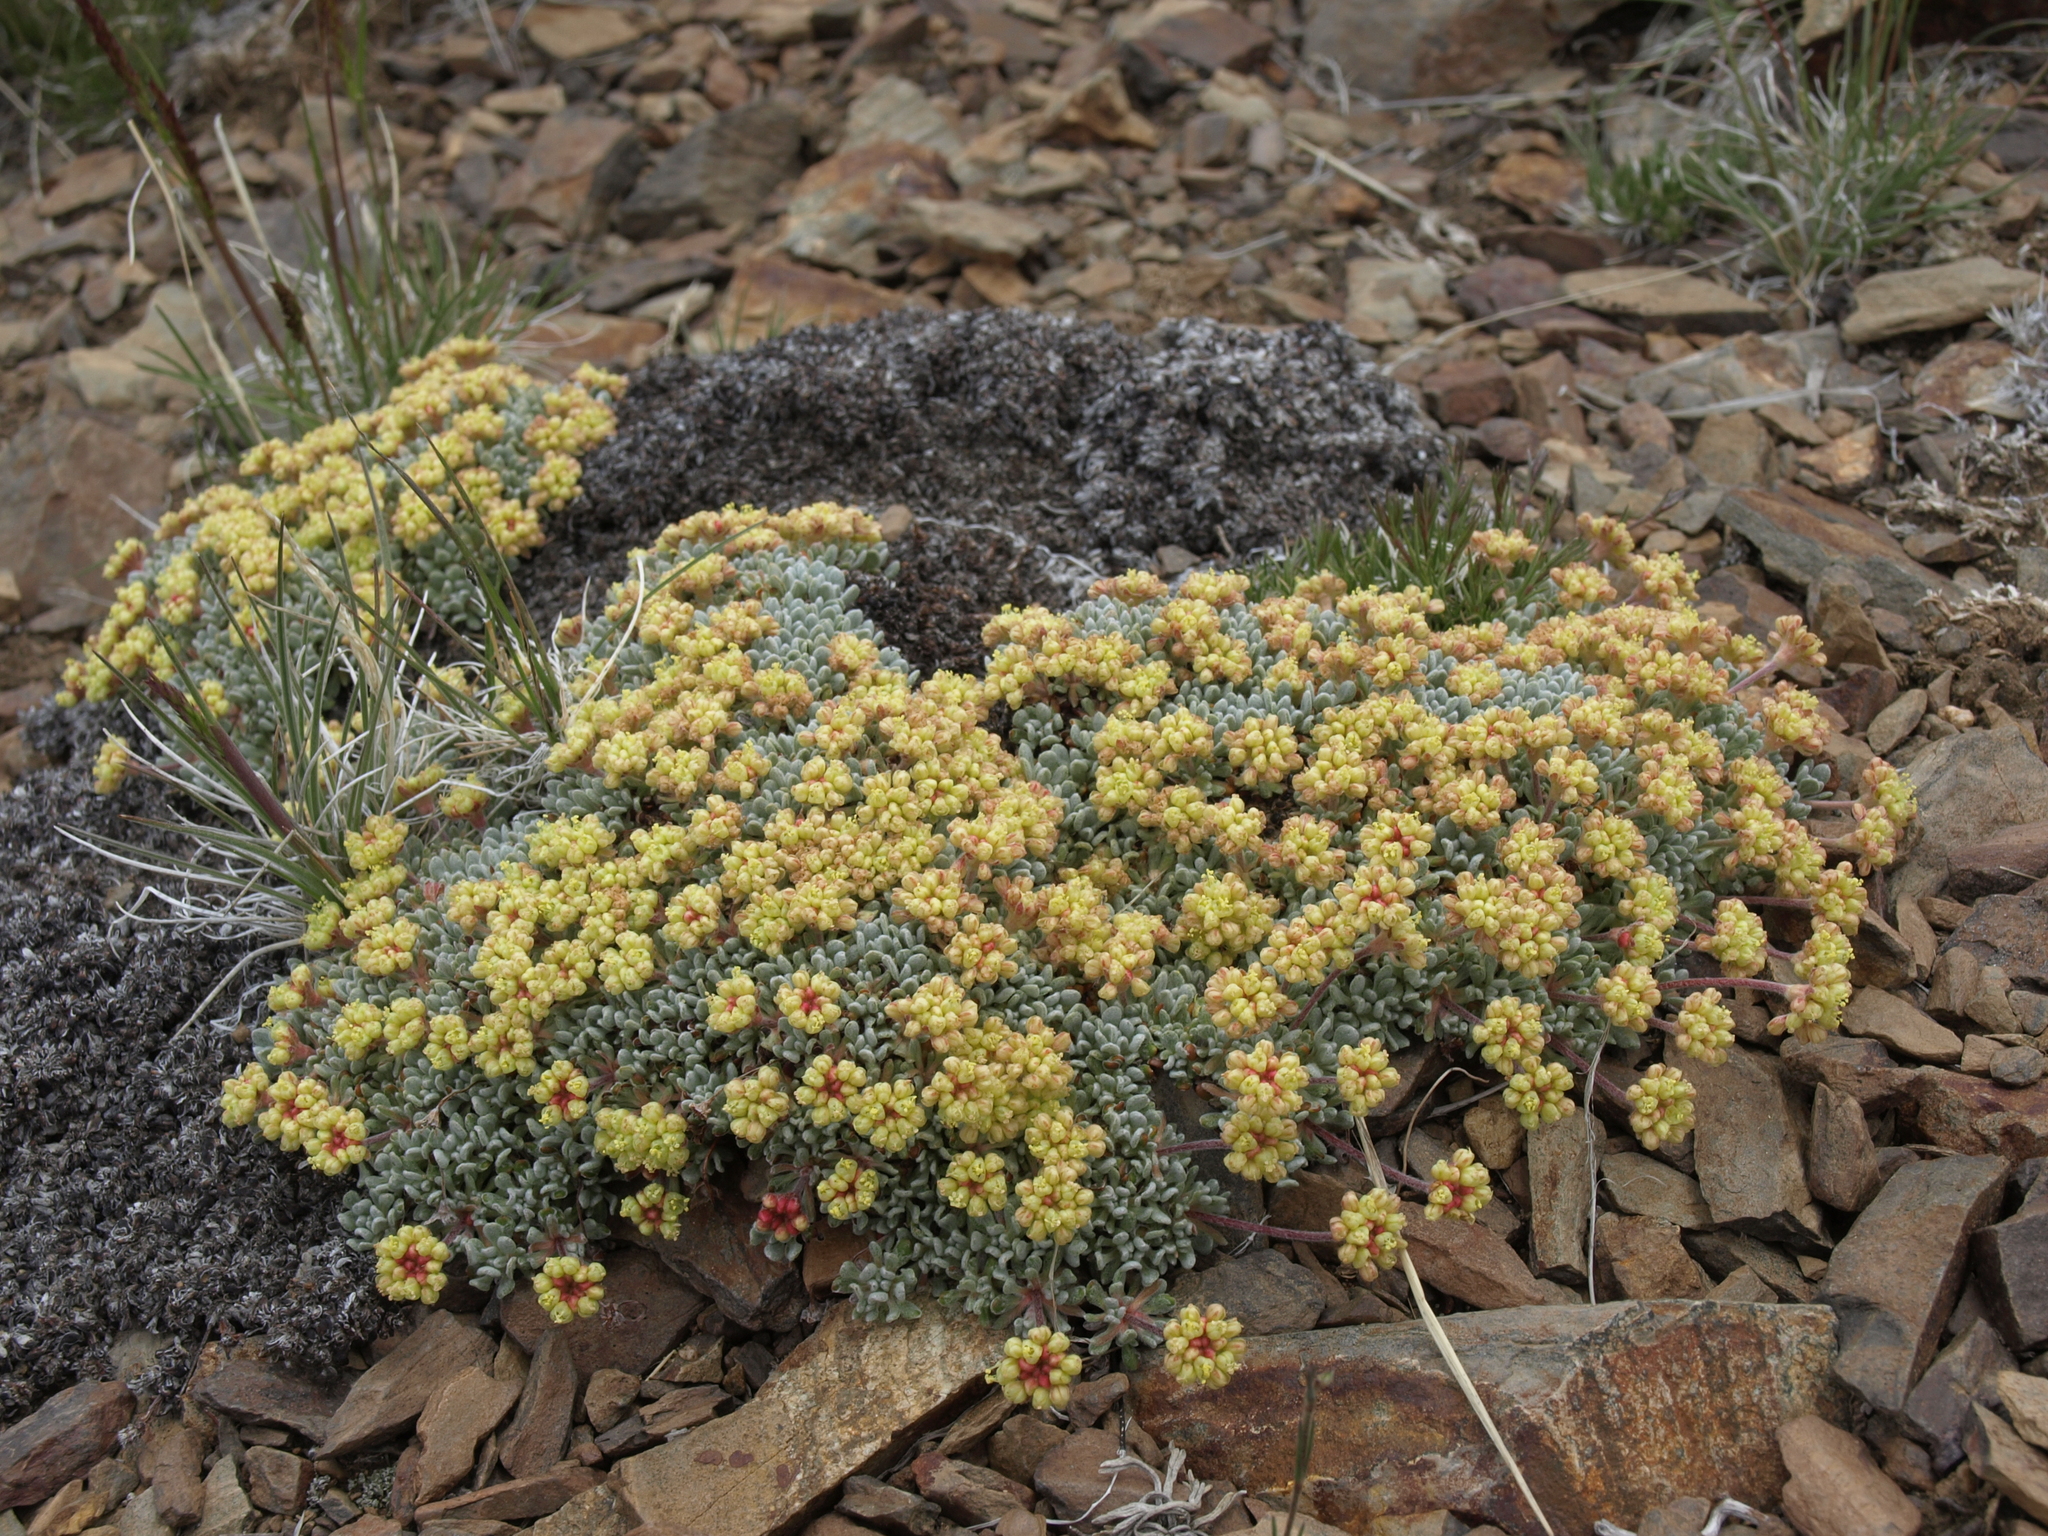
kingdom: Plantae
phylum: Tracheophyta
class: Magnoliopsida
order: Caryophyllales
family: Polygonaceae
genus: Eriogonum
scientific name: Eriogonum caespitosum
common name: Matted wild buckwheat
